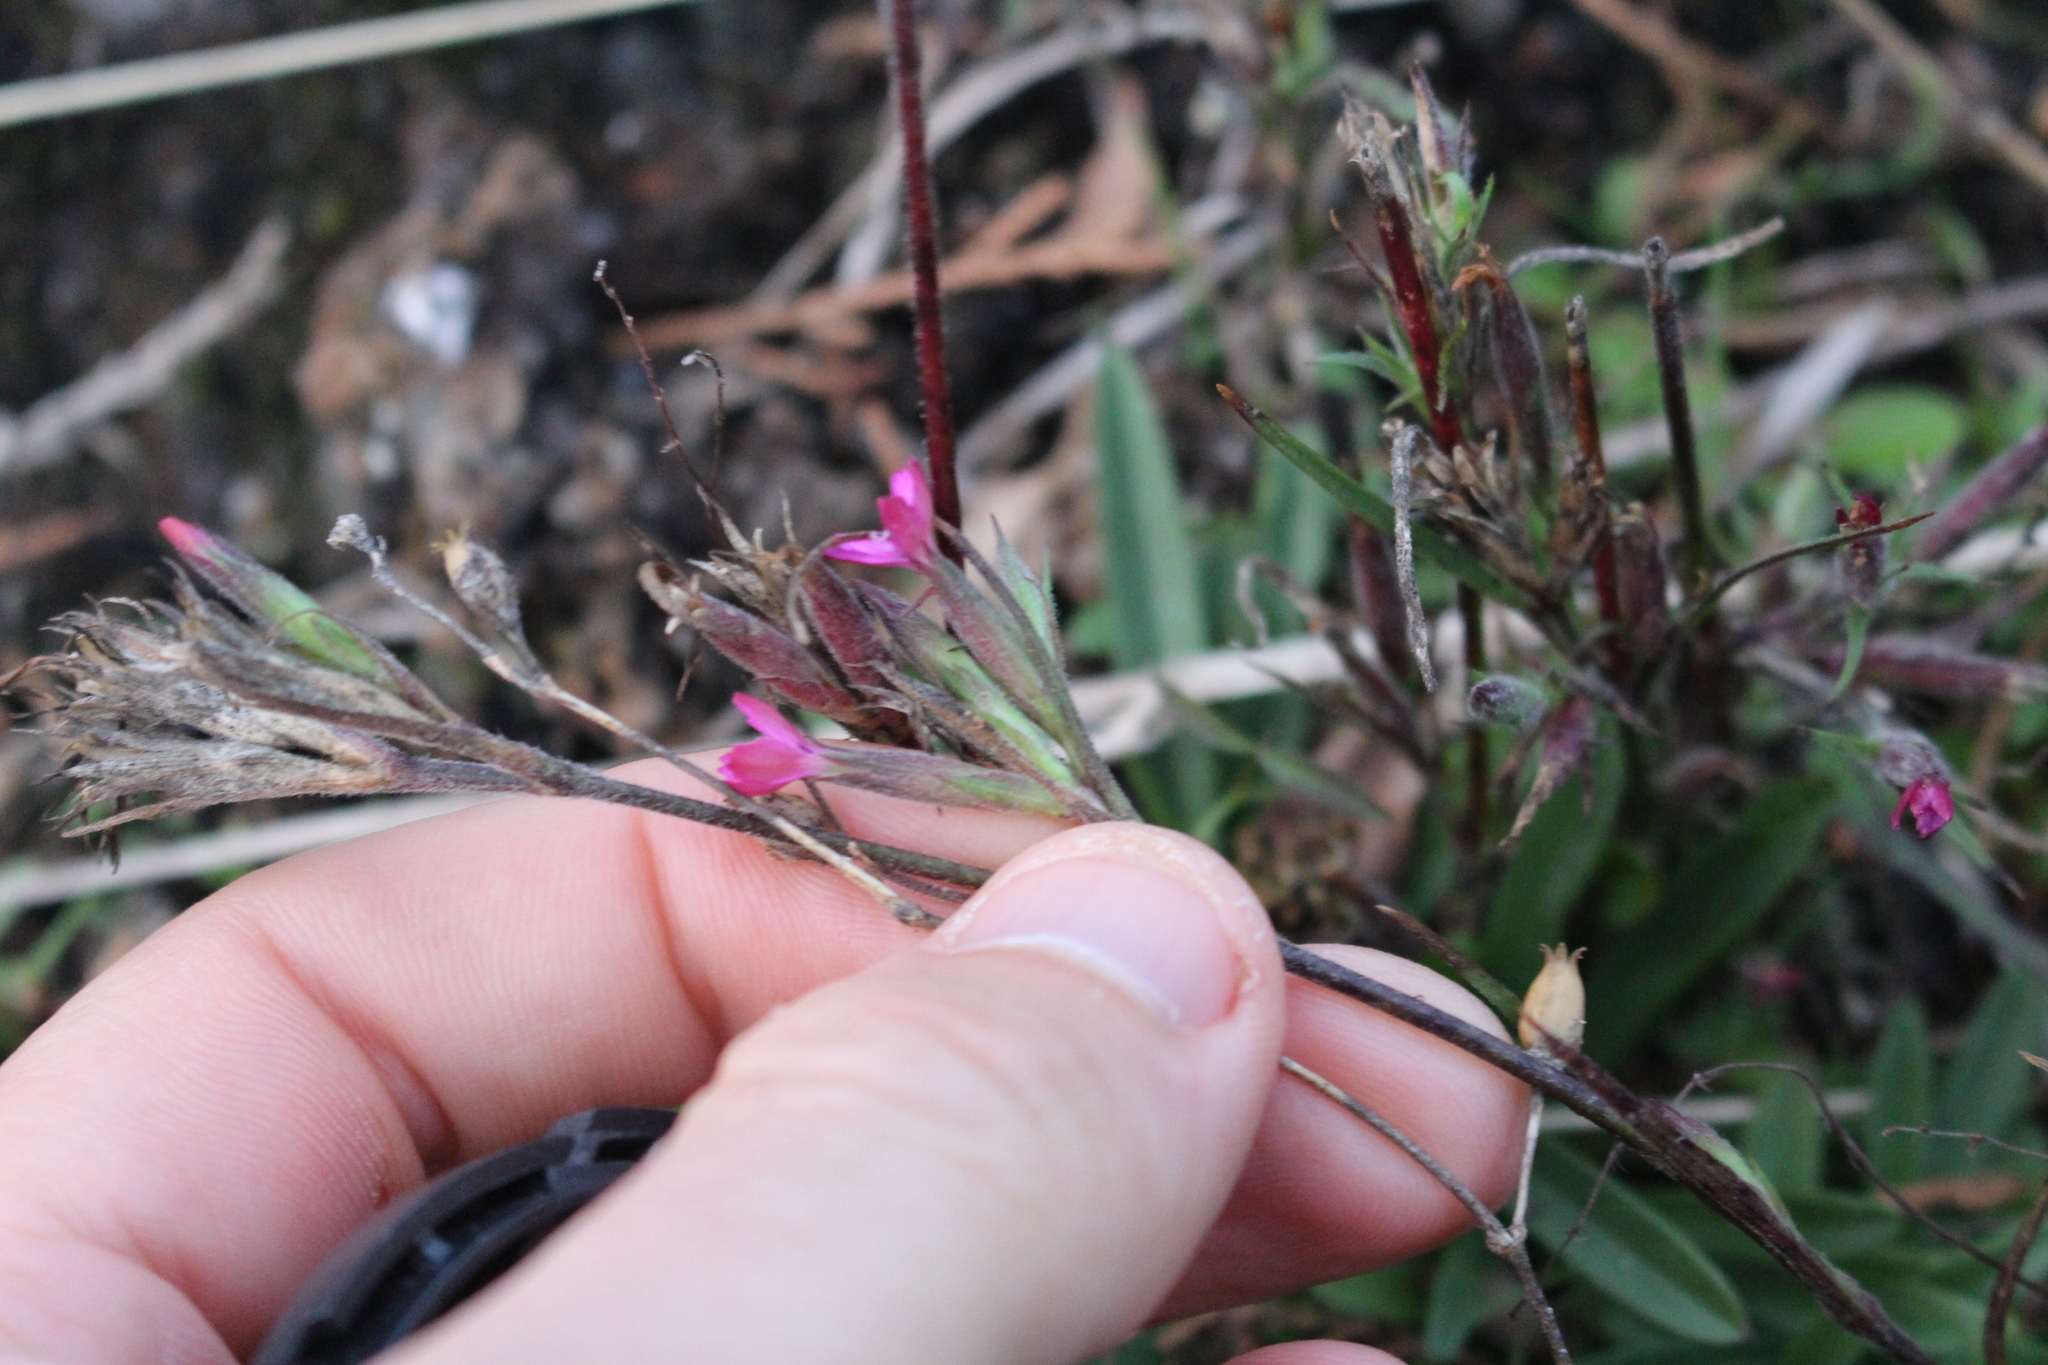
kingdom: Plantae
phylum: Tracheophyta
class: Magnoliopsida
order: Caryophyllales
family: Caryophyllaceae
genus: Dianthus
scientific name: Dianthus armeria
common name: Deptford pink
